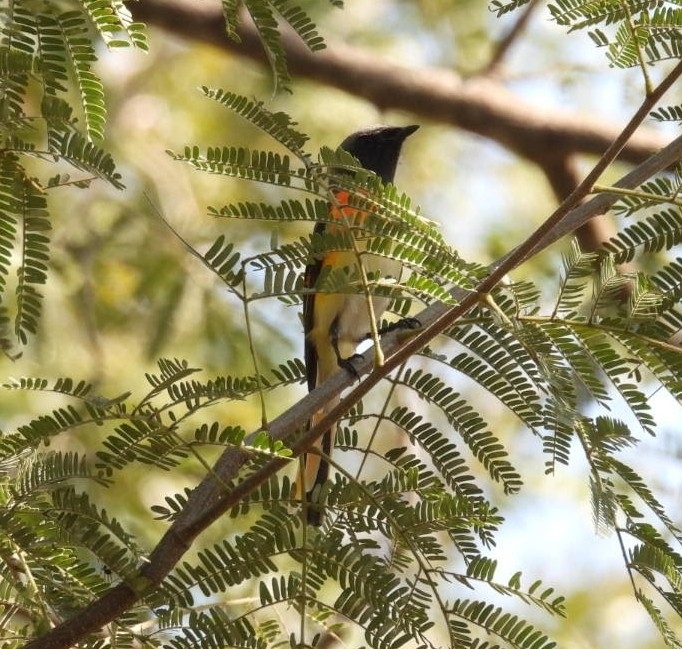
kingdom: Animalia
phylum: Chordata
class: Aves
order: Passeriformes
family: Campephagidae
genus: Pericrocotus
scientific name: Pericrocotus cinnamomeus
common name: Small minivet
